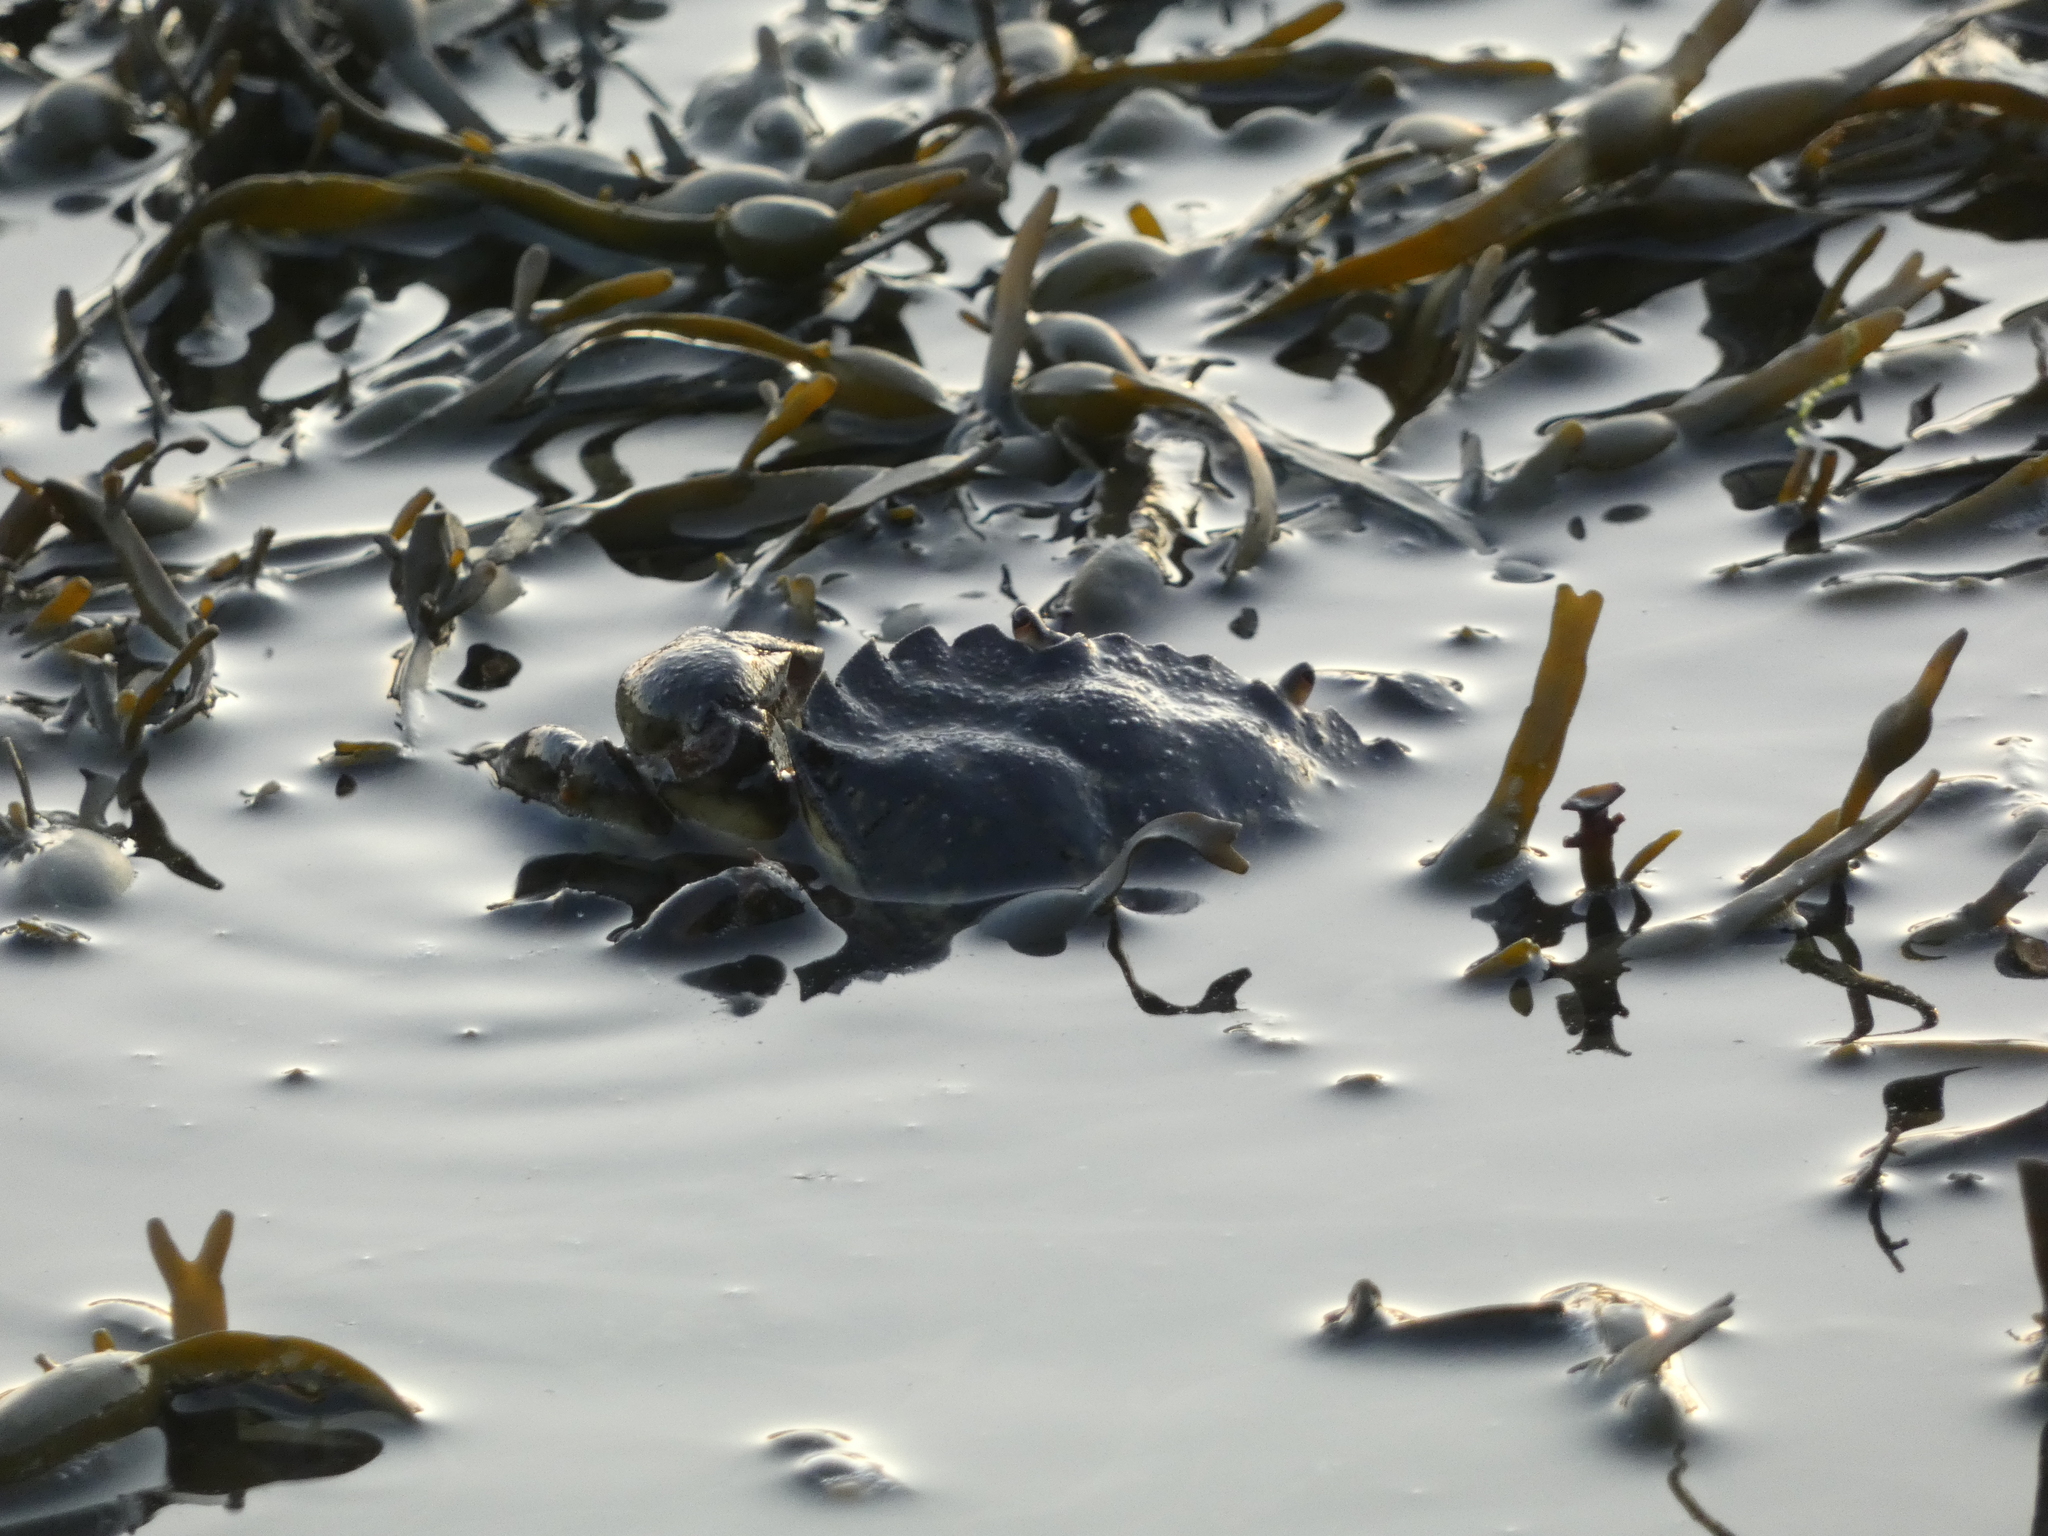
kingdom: Animalia
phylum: Arthropoda
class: Malacostraca
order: Decapoda
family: Carcinidae
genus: Carcinus
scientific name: Carcinus maenas
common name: European green crab
